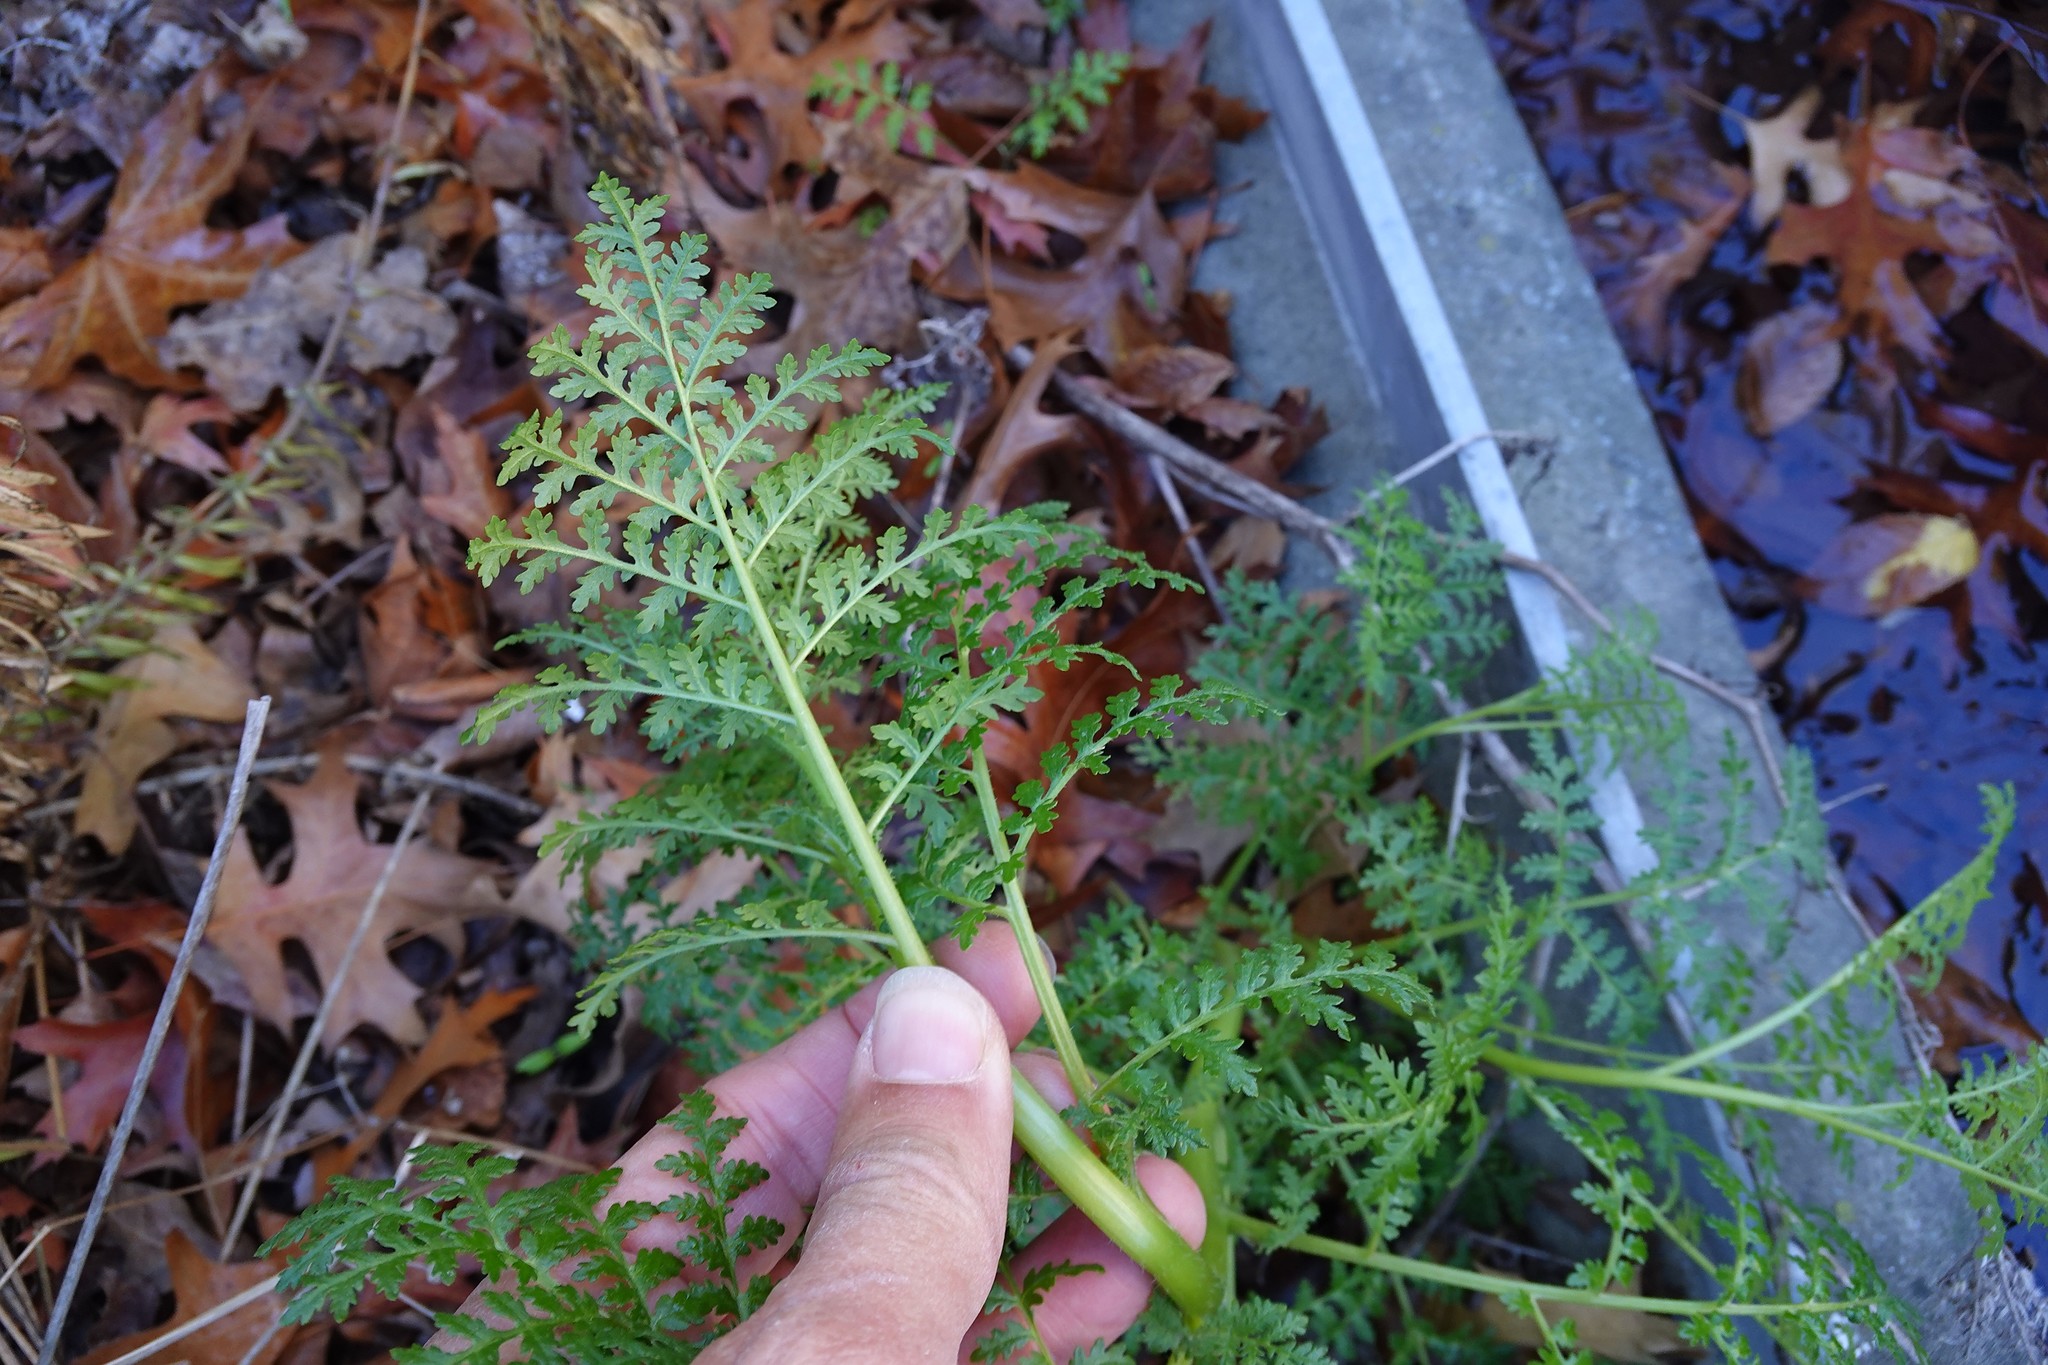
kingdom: Plantae
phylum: Tracheophyta
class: Magnoliopsida
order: Boraginales
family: Hydrophyllaceae
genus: Phacelia
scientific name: Phacelia tanacetifolia
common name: Phacelia
